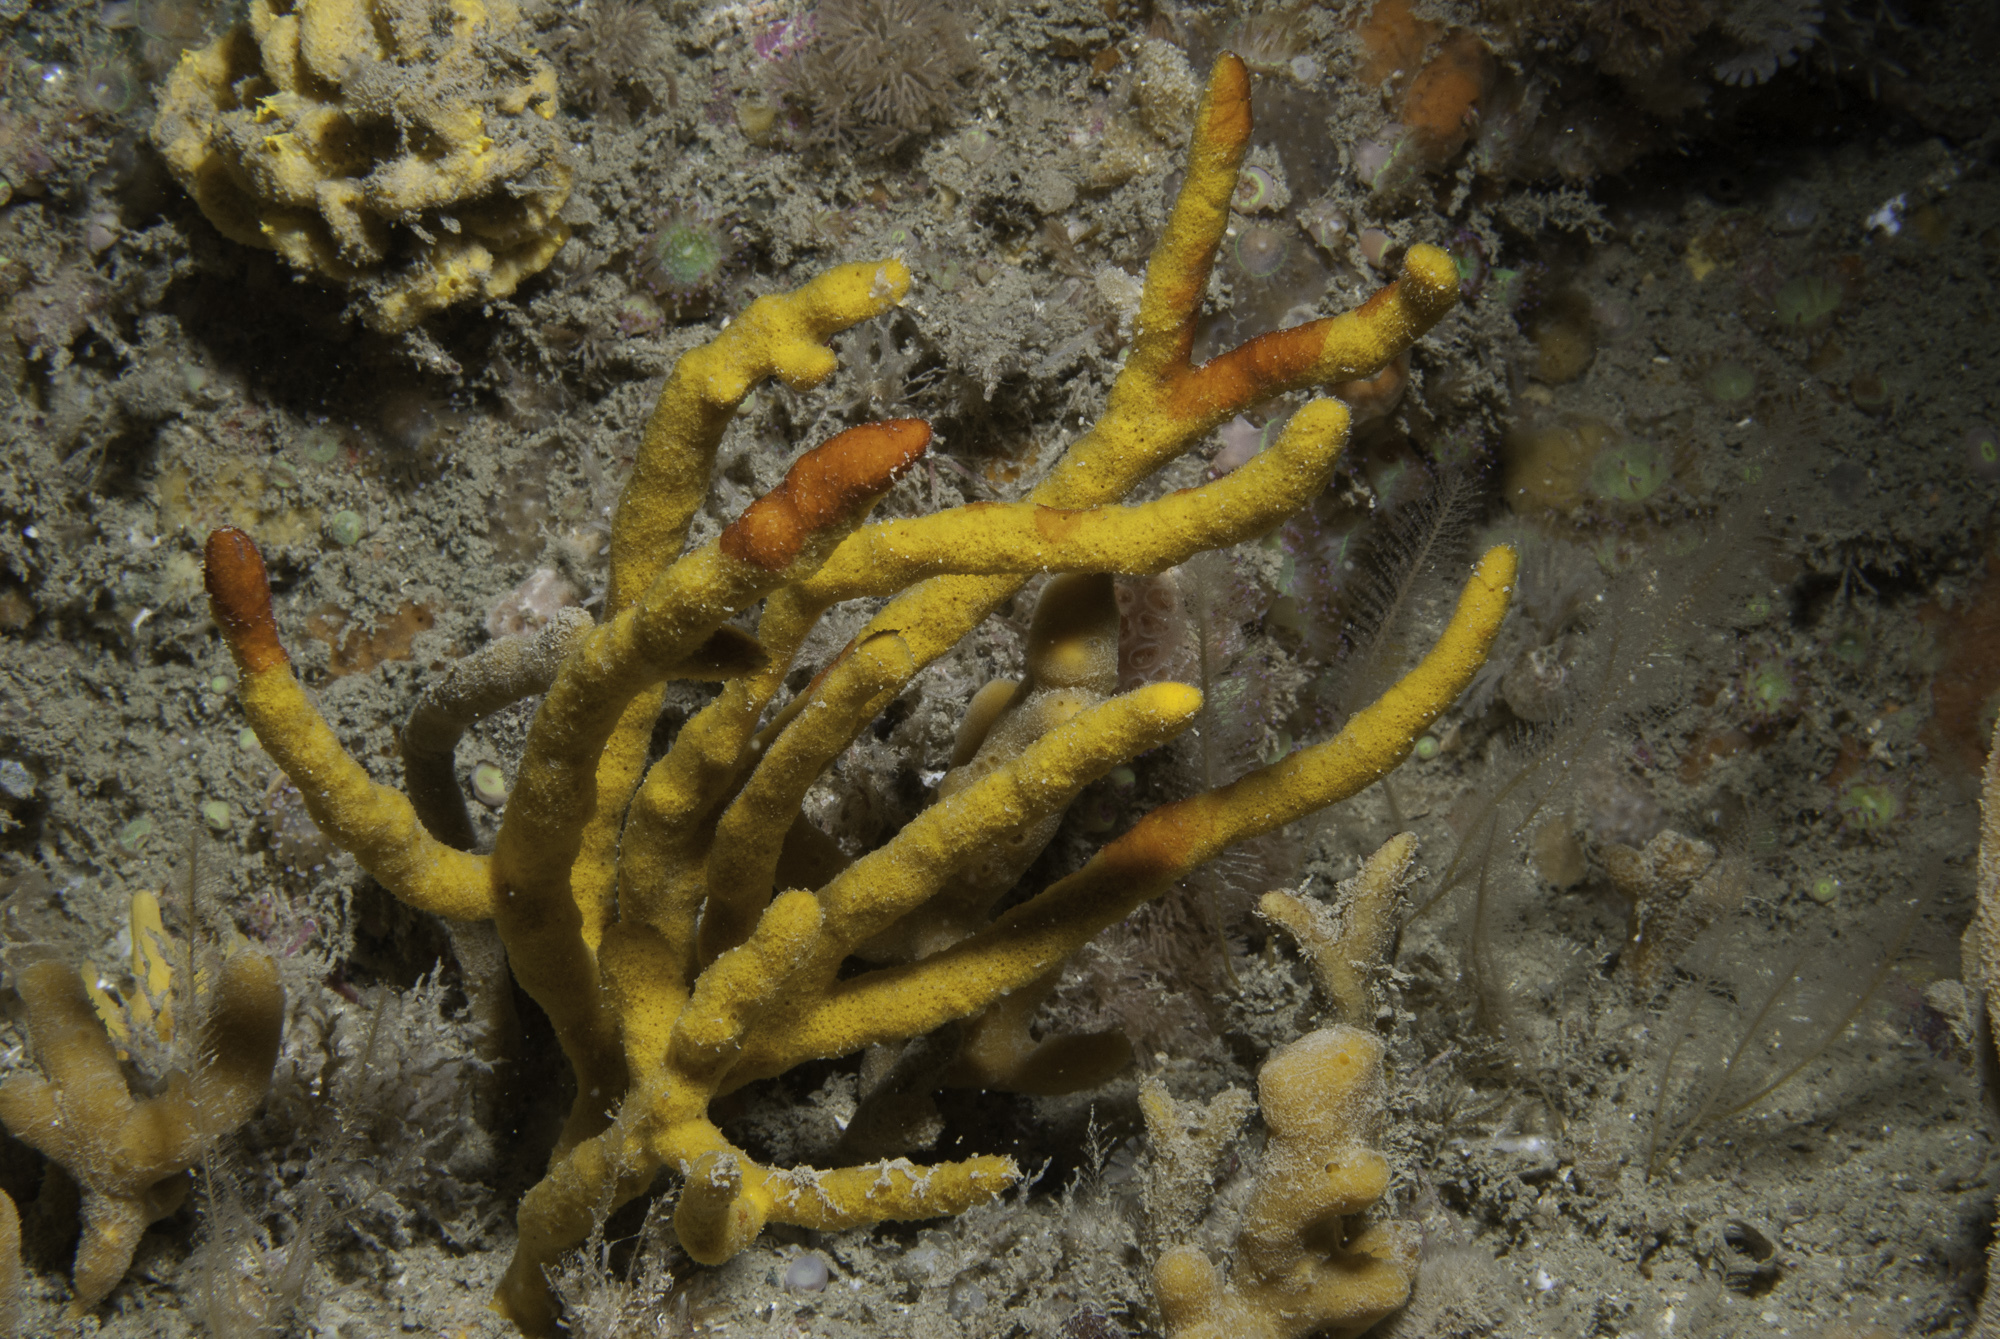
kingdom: Animalia
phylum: Porifera
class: Demospongiae
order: Axinellida
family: Raspailiidae
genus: Raspailia
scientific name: Raspailia agnata
